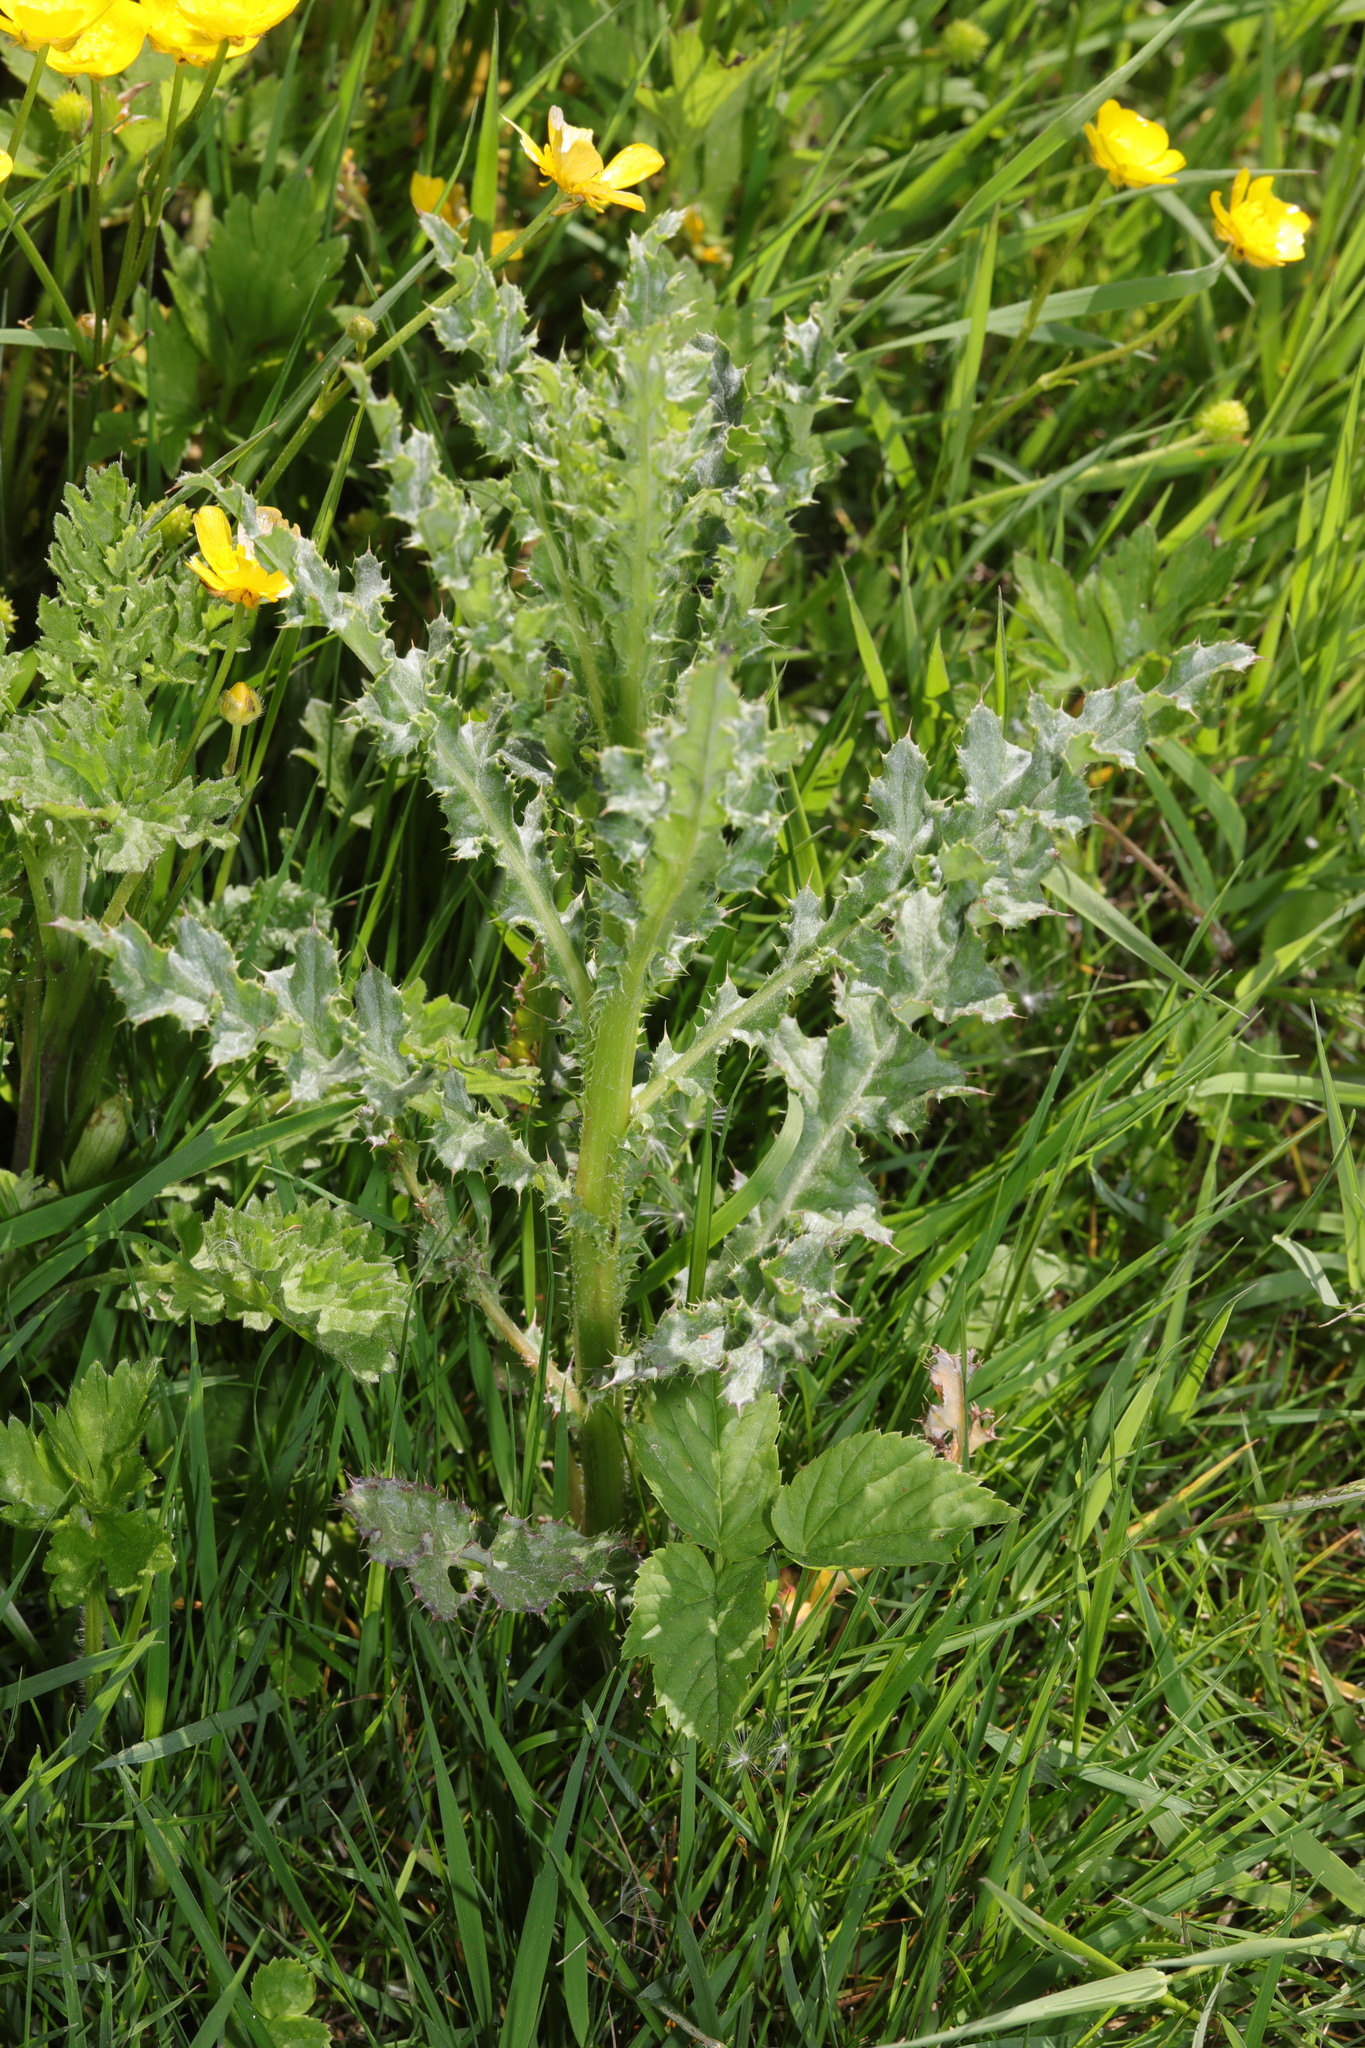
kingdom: Plantae
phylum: Tracheophyta
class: Magnoliopsida
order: Asterales
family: Asteraceae
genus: Cirsium
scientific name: Cirsium arvense
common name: Creeping thistle
